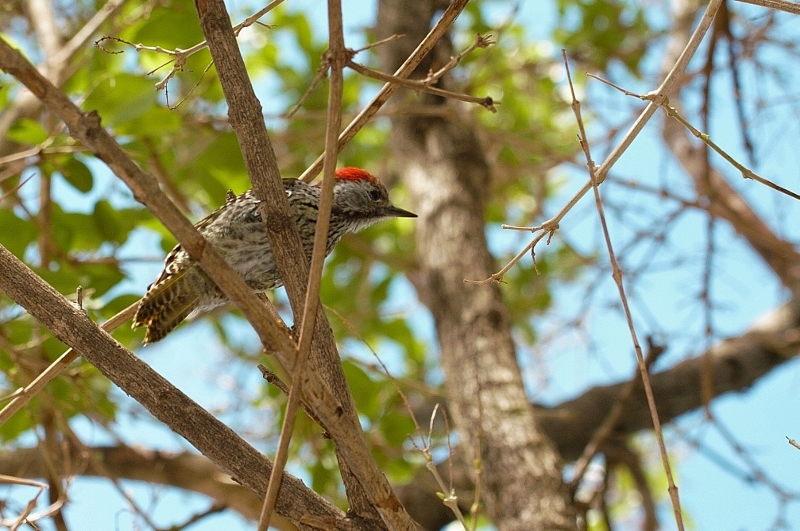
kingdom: Animalia
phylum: Chordata
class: Aves
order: Piciformes
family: Picidae
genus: Dendropicos
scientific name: Dendropicos fuscescens
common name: Cardinal woodpecker
